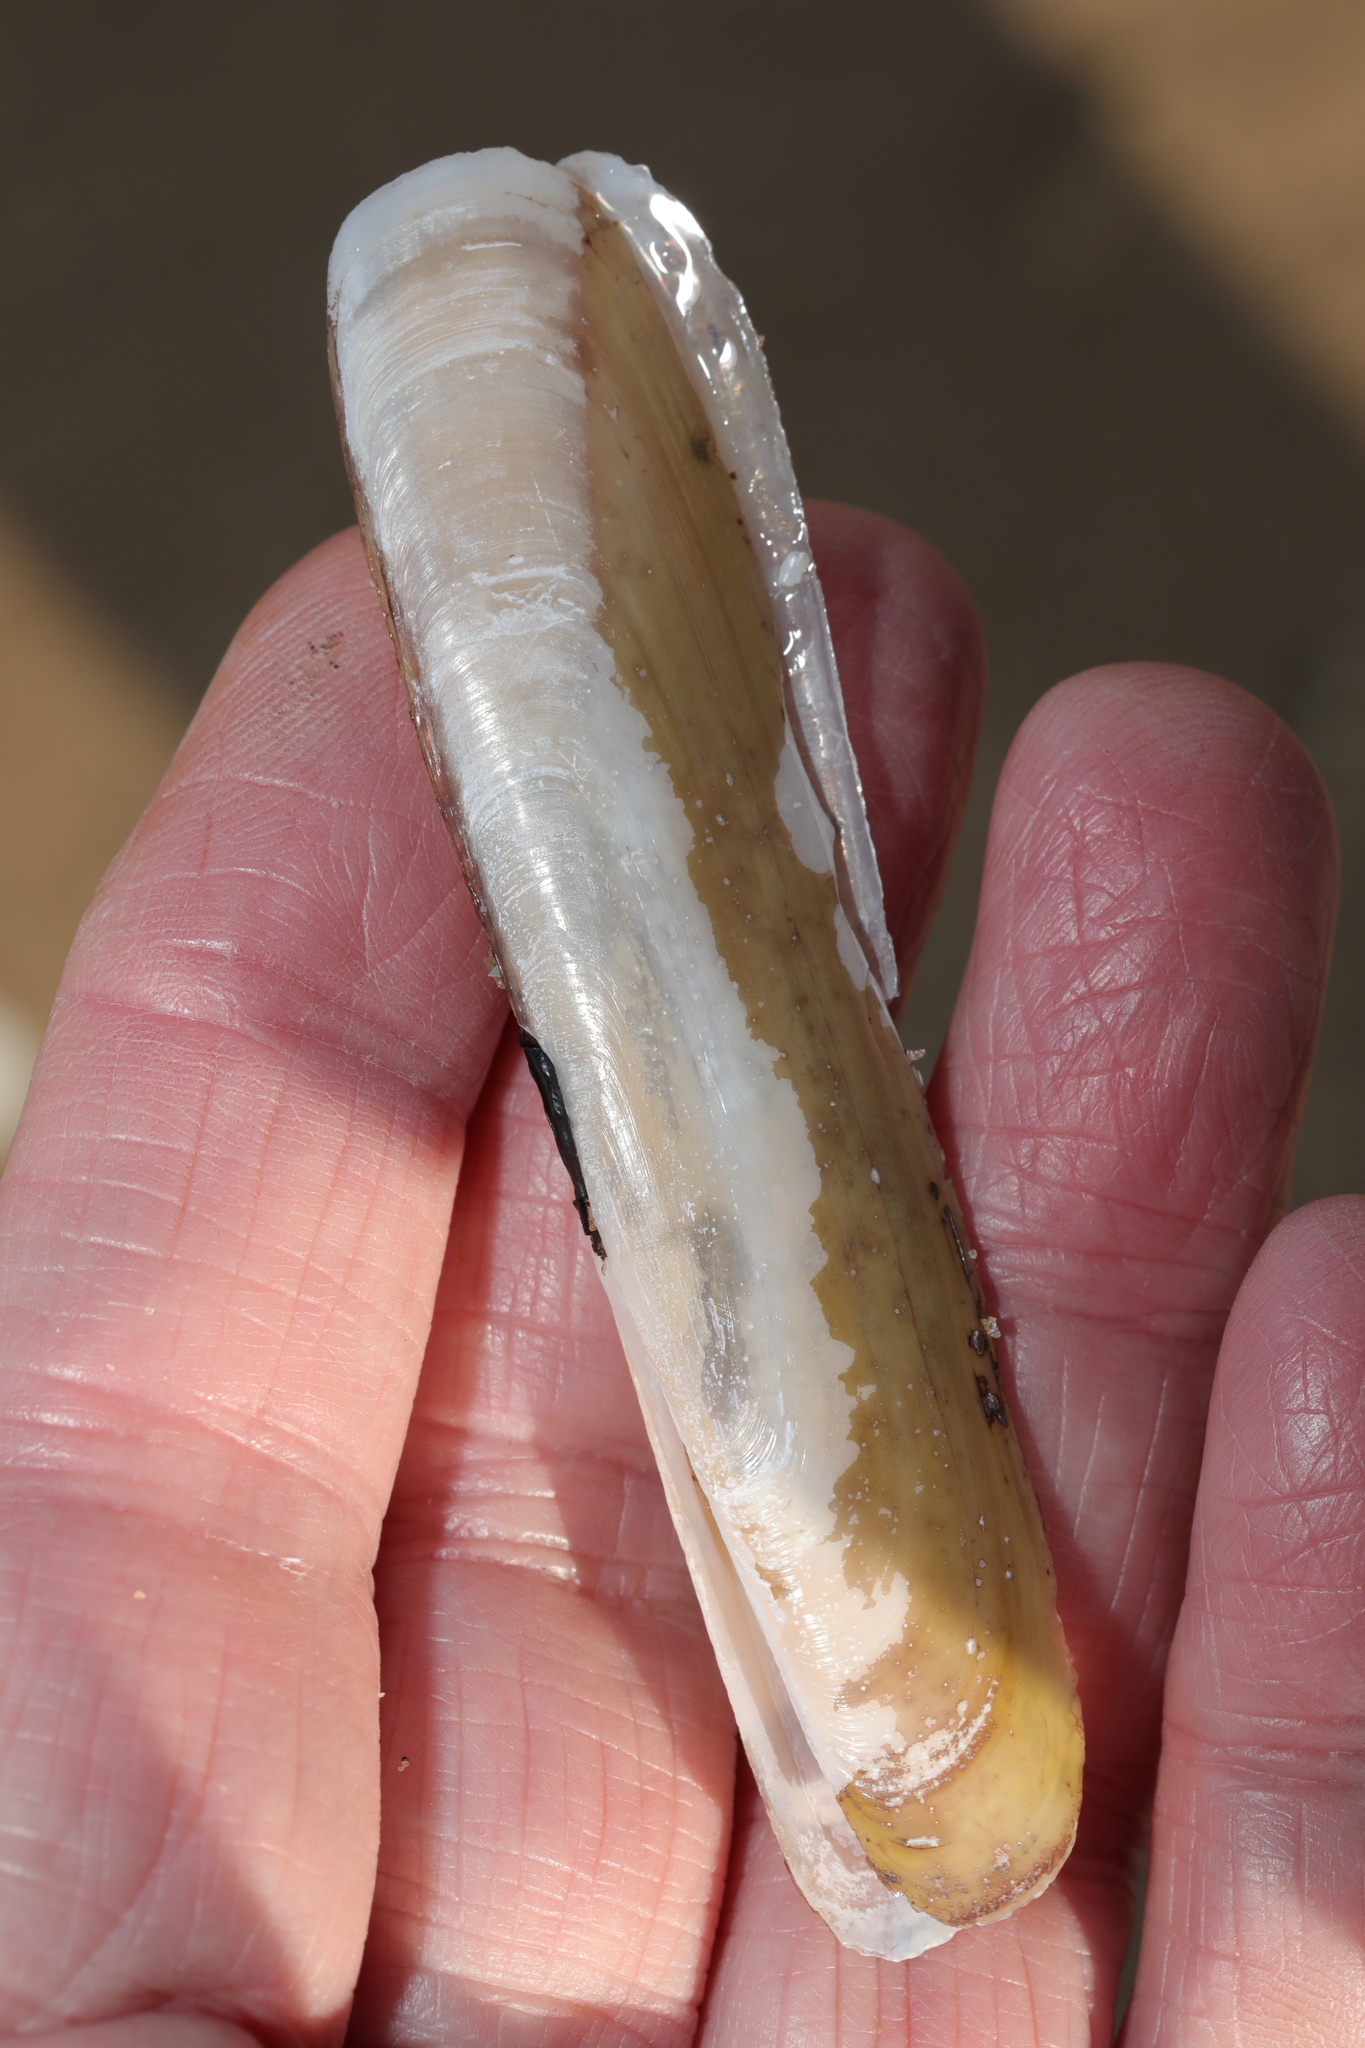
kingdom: Animalia
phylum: Mollusca
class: Bivalvia
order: Adapedonta
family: Pharidae
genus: Pharus
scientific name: Pharus legumen
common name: Bean razor clam
